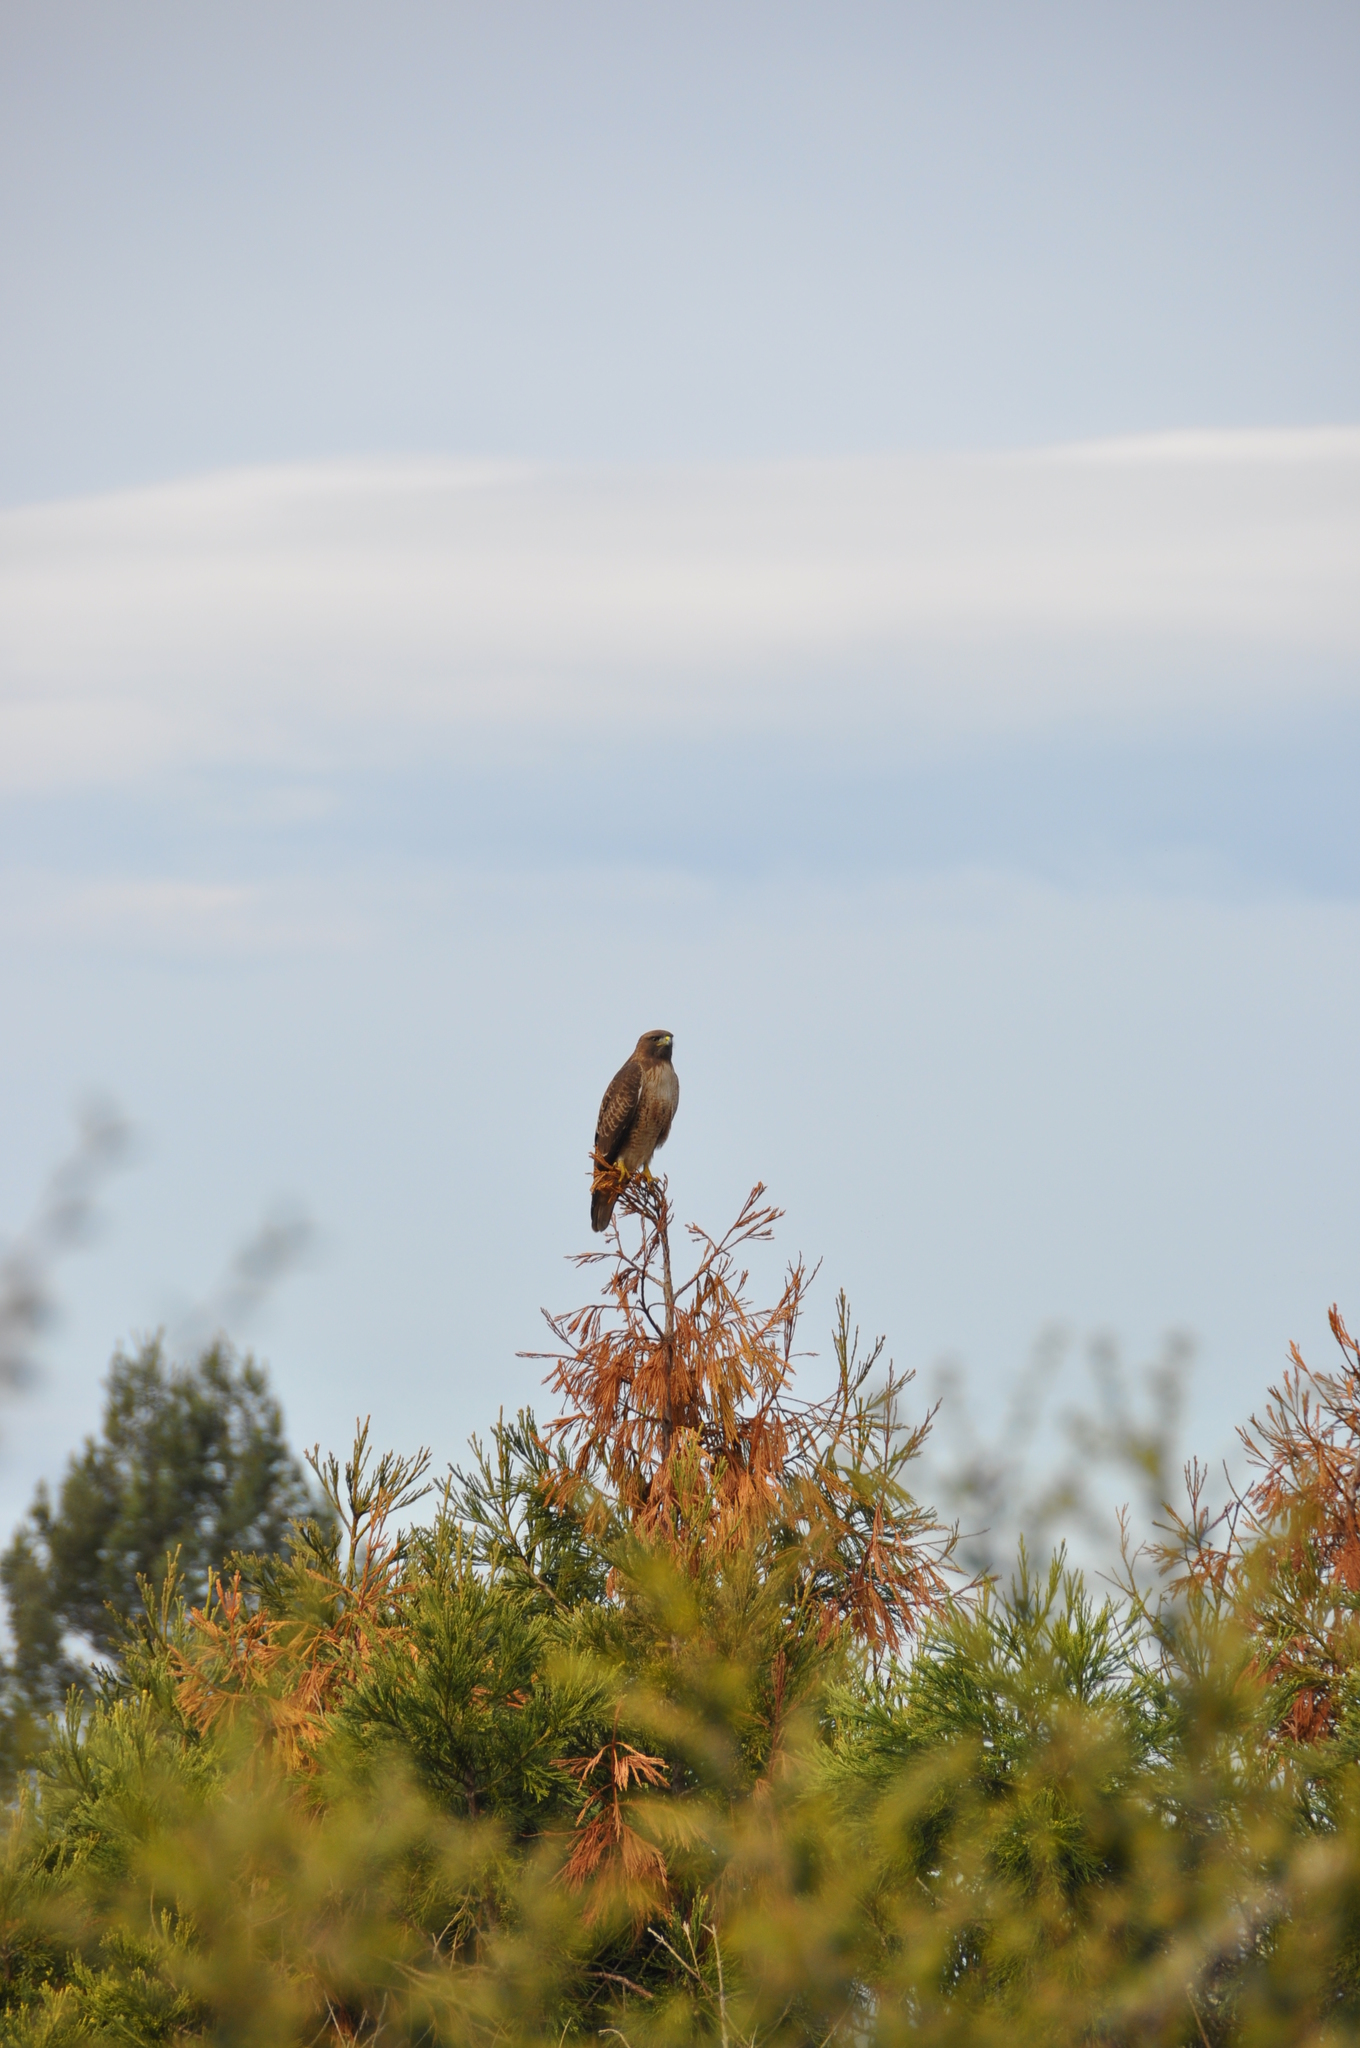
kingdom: Animalia
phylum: Chordata
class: Aves
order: Accipitriformes
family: Accipitridae
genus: Buteo
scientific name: Buteo jamaicensis
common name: Red-tailed hawk
